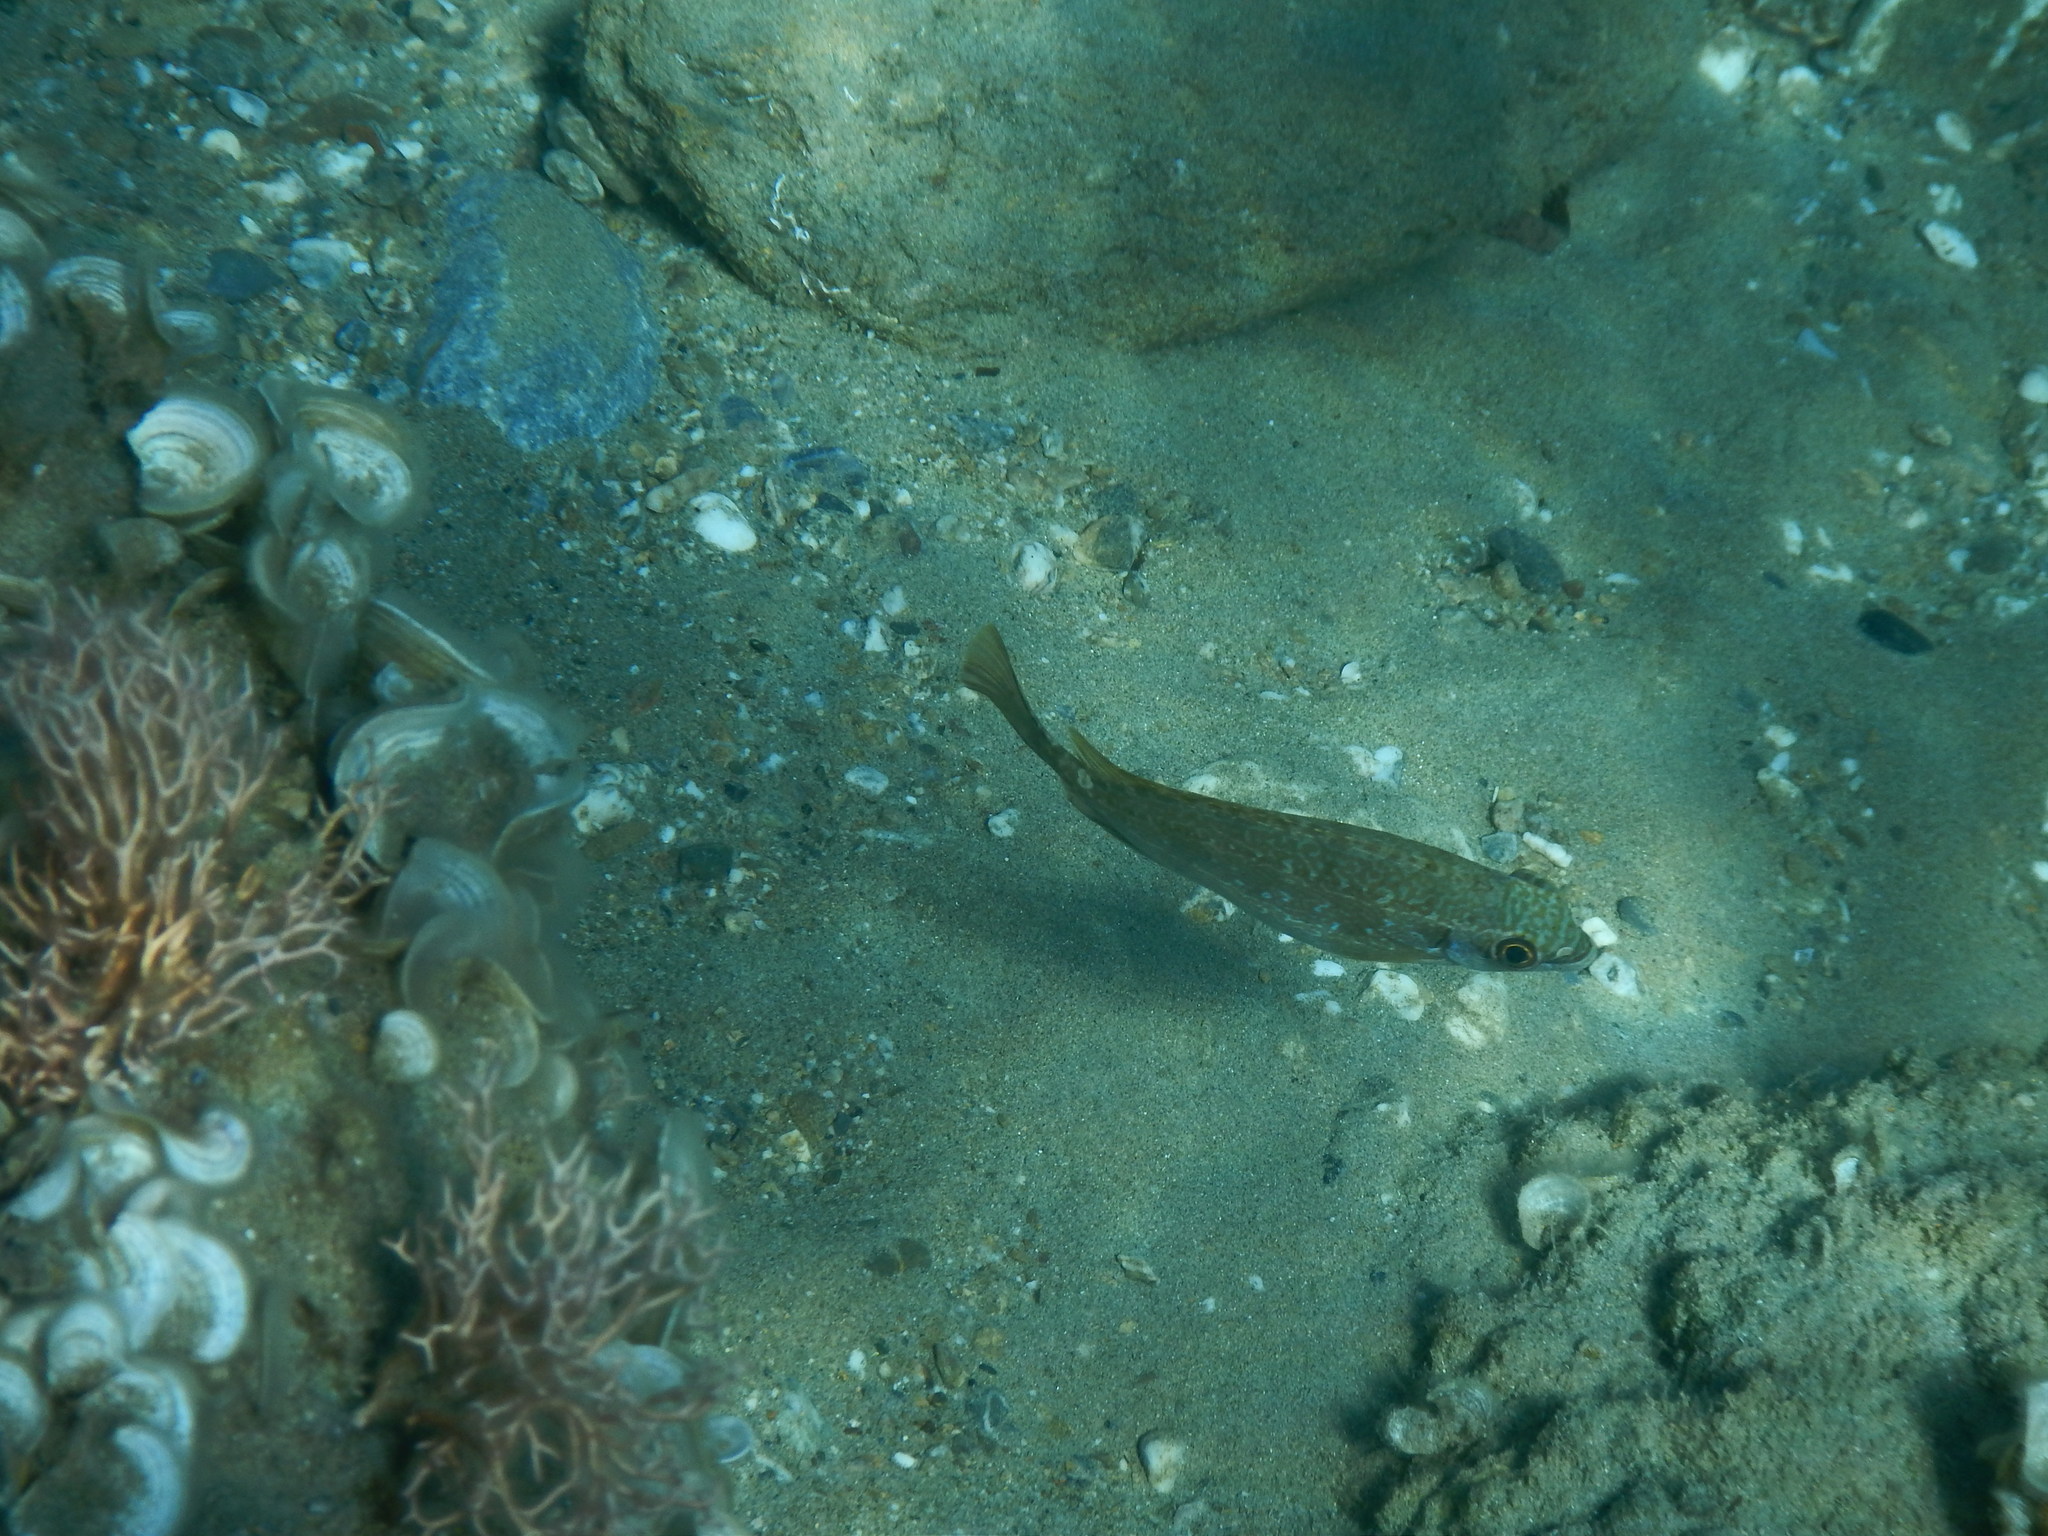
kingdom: Animalia
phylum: Chordata
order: Perciformes
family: Siganidae
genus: Siganus
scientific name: Siganus luridus
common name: Dusky spinefoot
